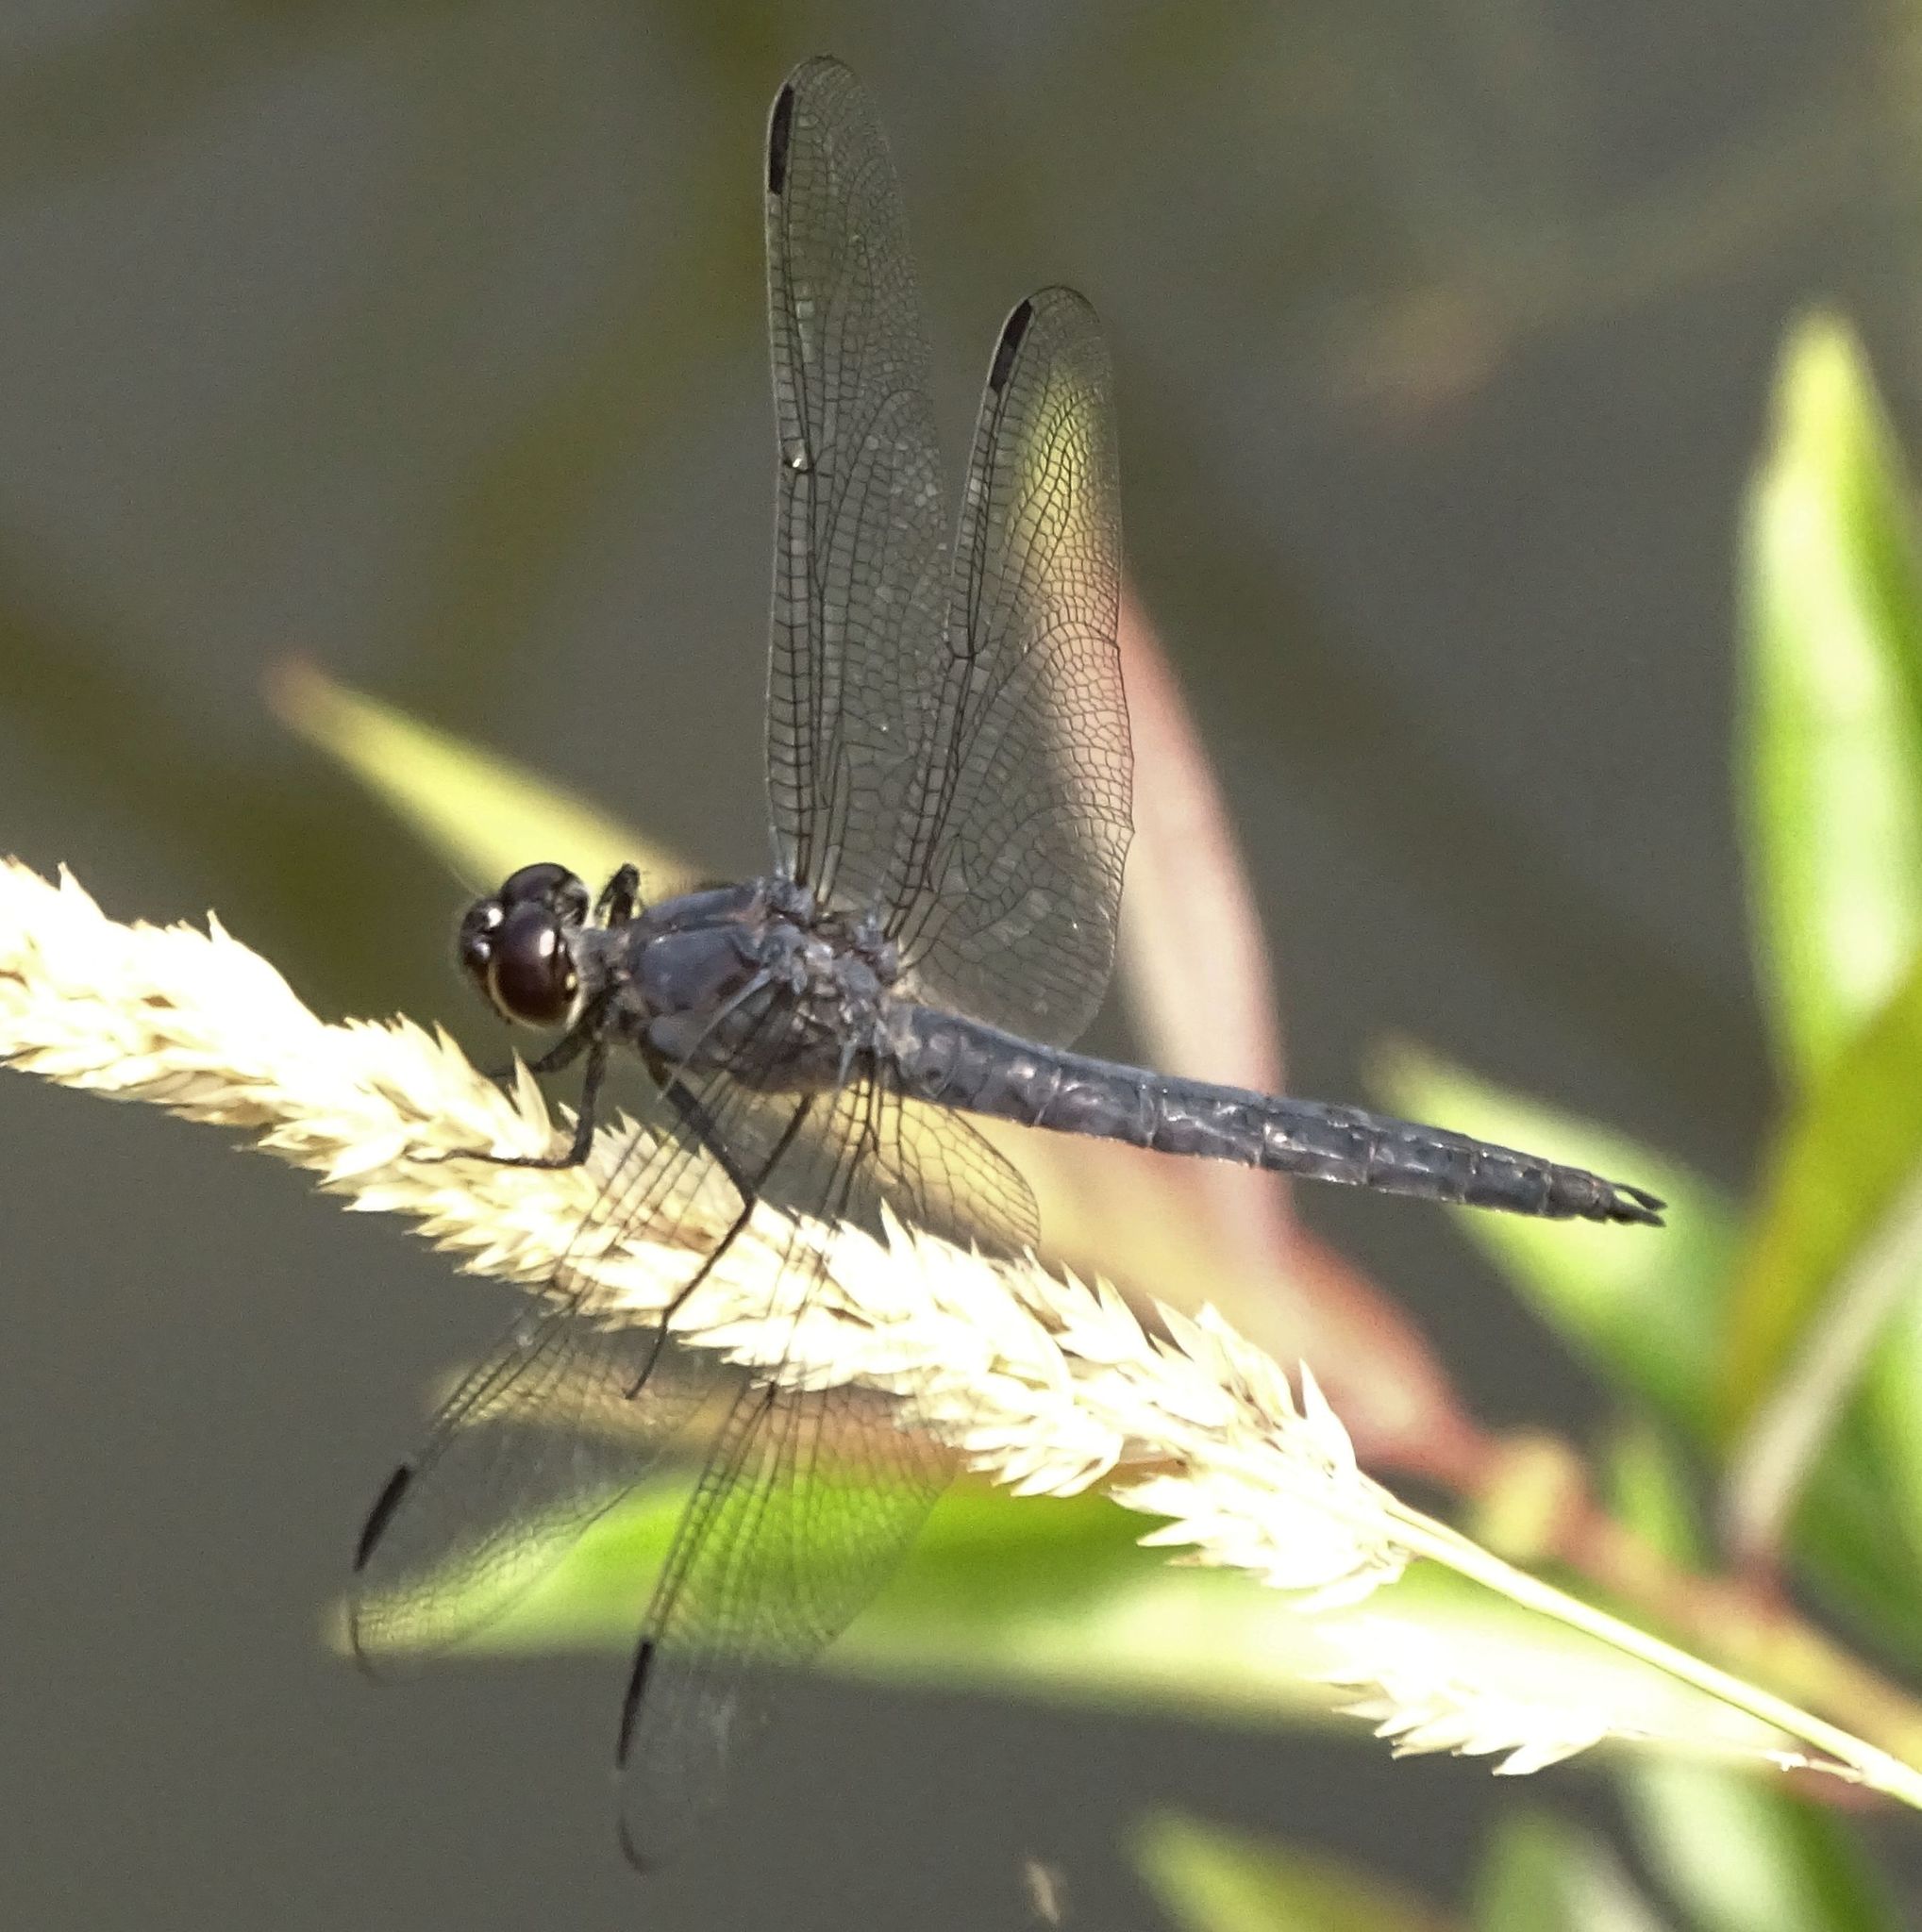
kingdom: Animalia
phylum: Arthropoda
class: Insecta
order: Odonata
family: Libellulidae
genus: Libellula
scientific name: Libellula incesta
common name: Slaty skimmer
